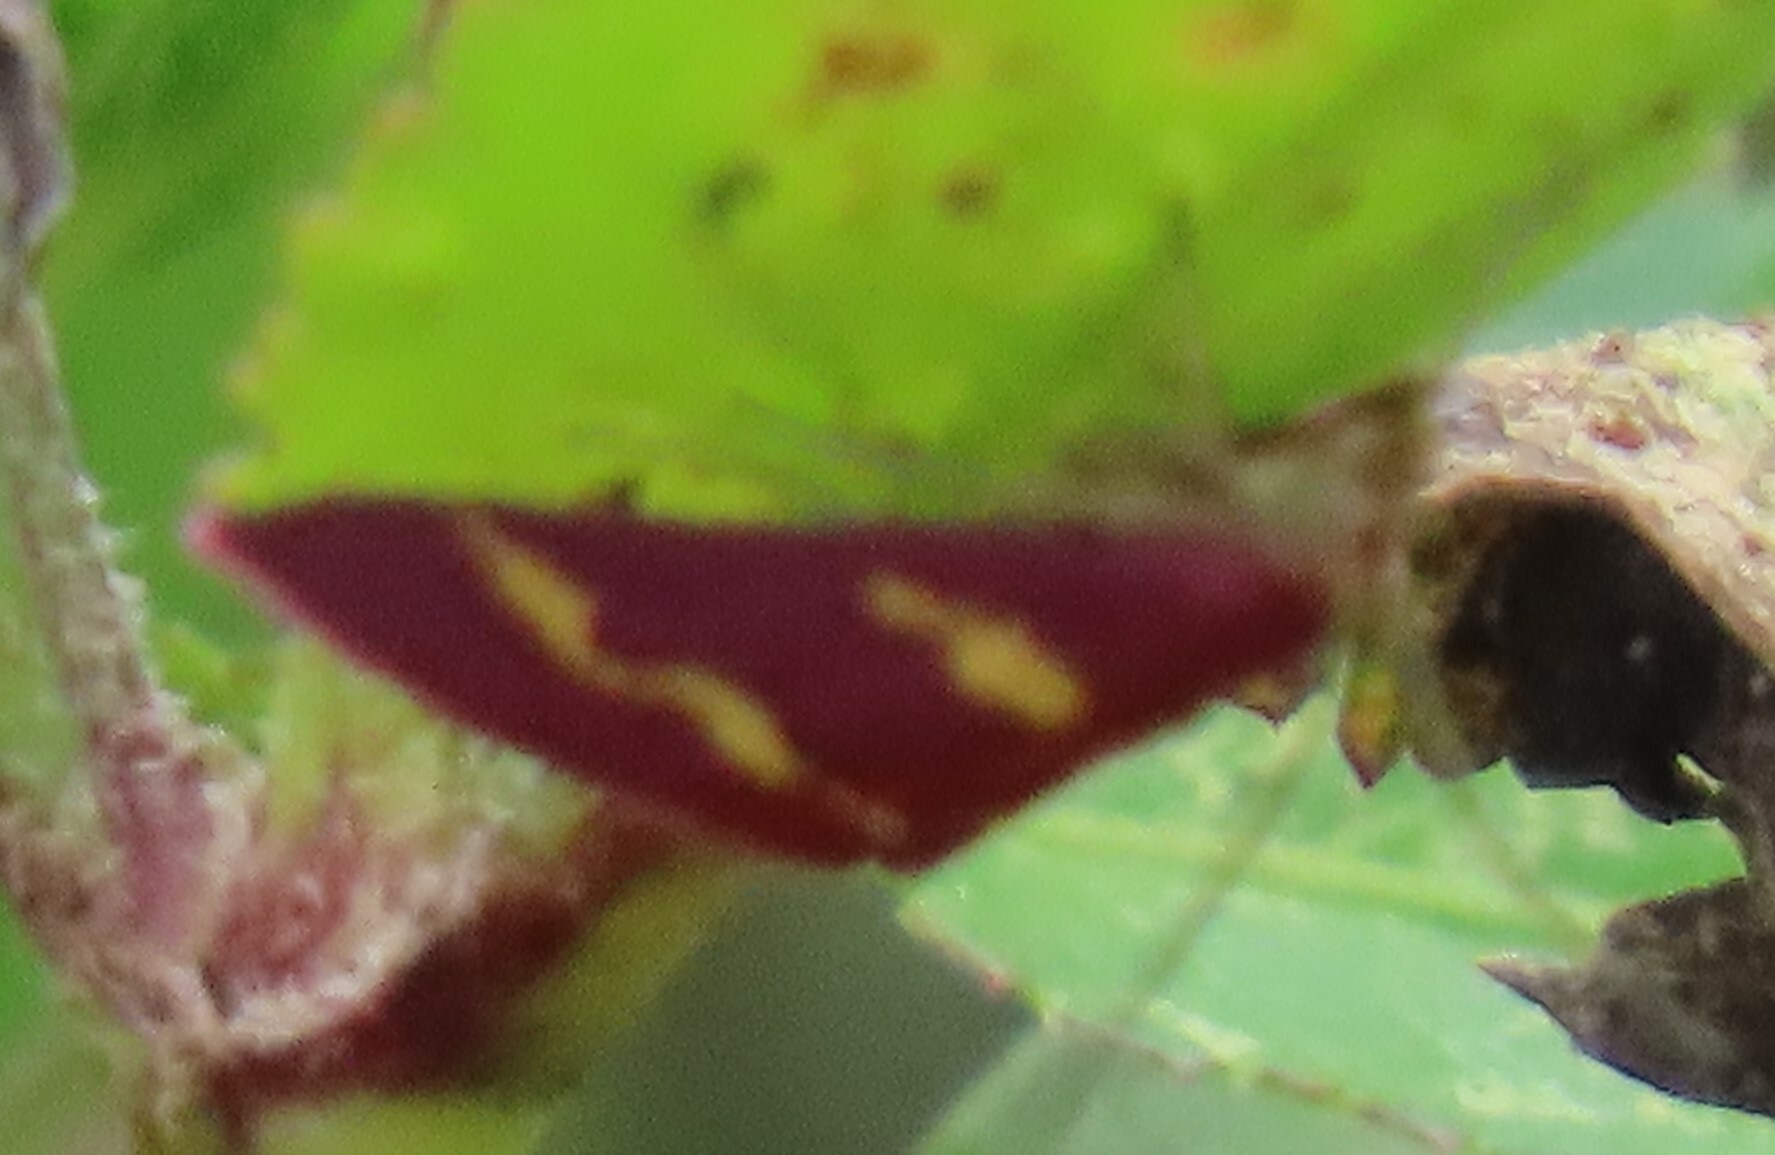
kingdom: Animalia
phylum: Arthropoda
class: Insecta
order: Lepidoptera
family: Crambidae
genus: Pyrausta
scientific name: Pyrausta tyralis
